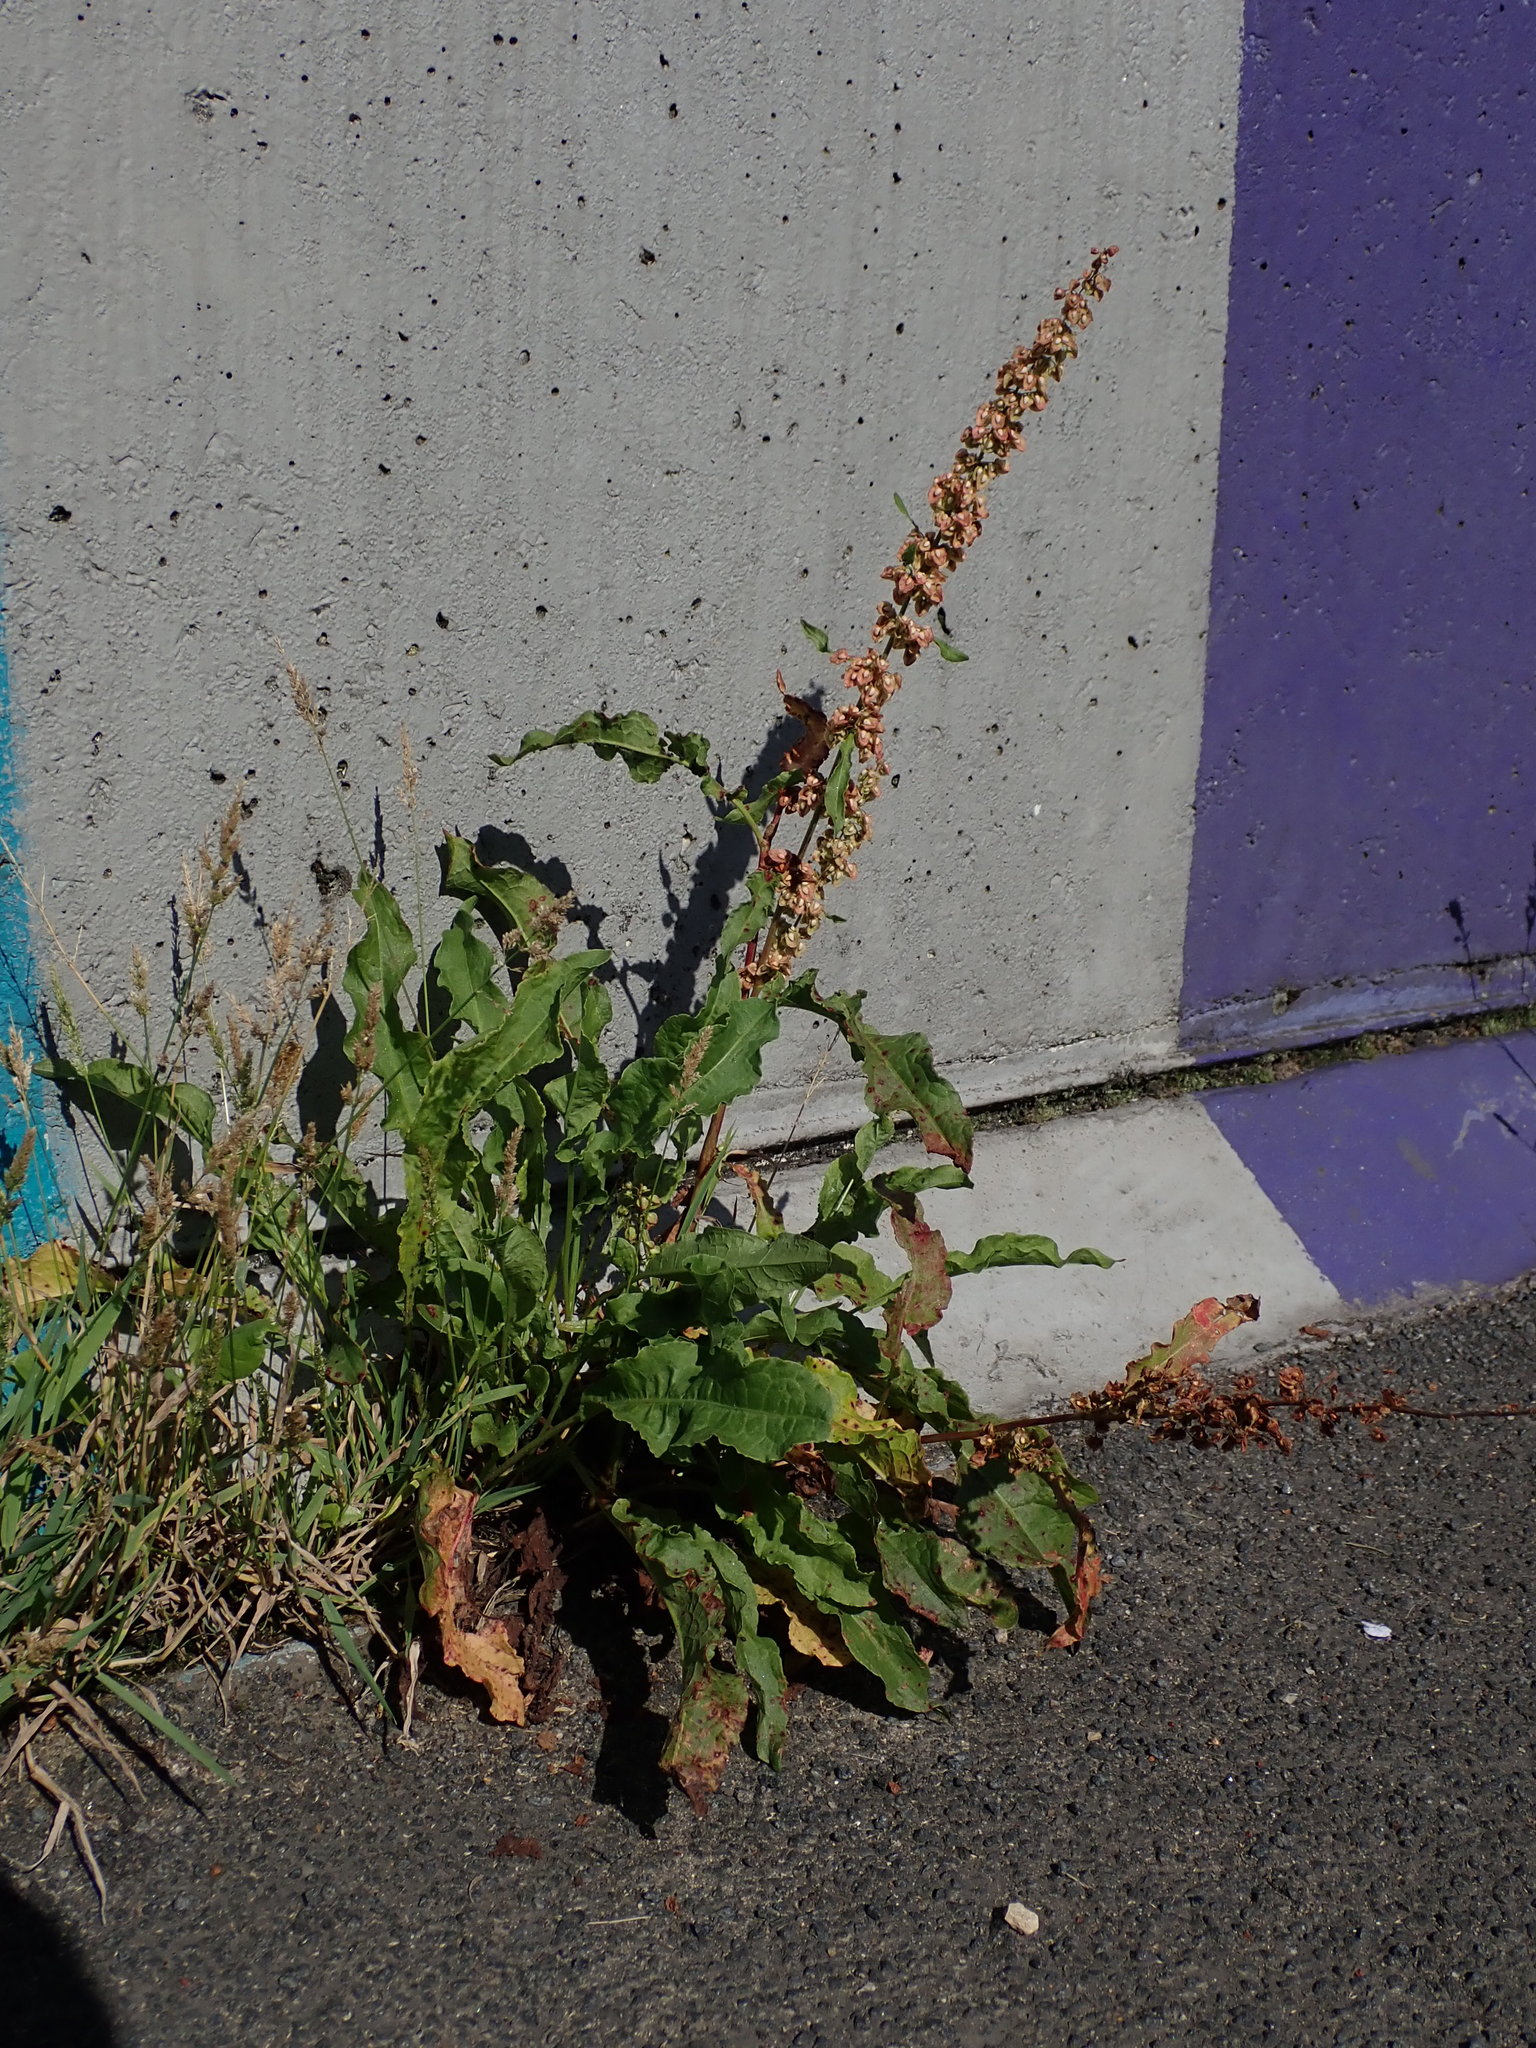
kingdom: Plantae
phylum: Tracheophyta
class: Magnoliopsida
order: Caryophyllales
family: Polygonaceae
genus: Rumex
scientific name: Rumex crispus
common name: Curled dock
